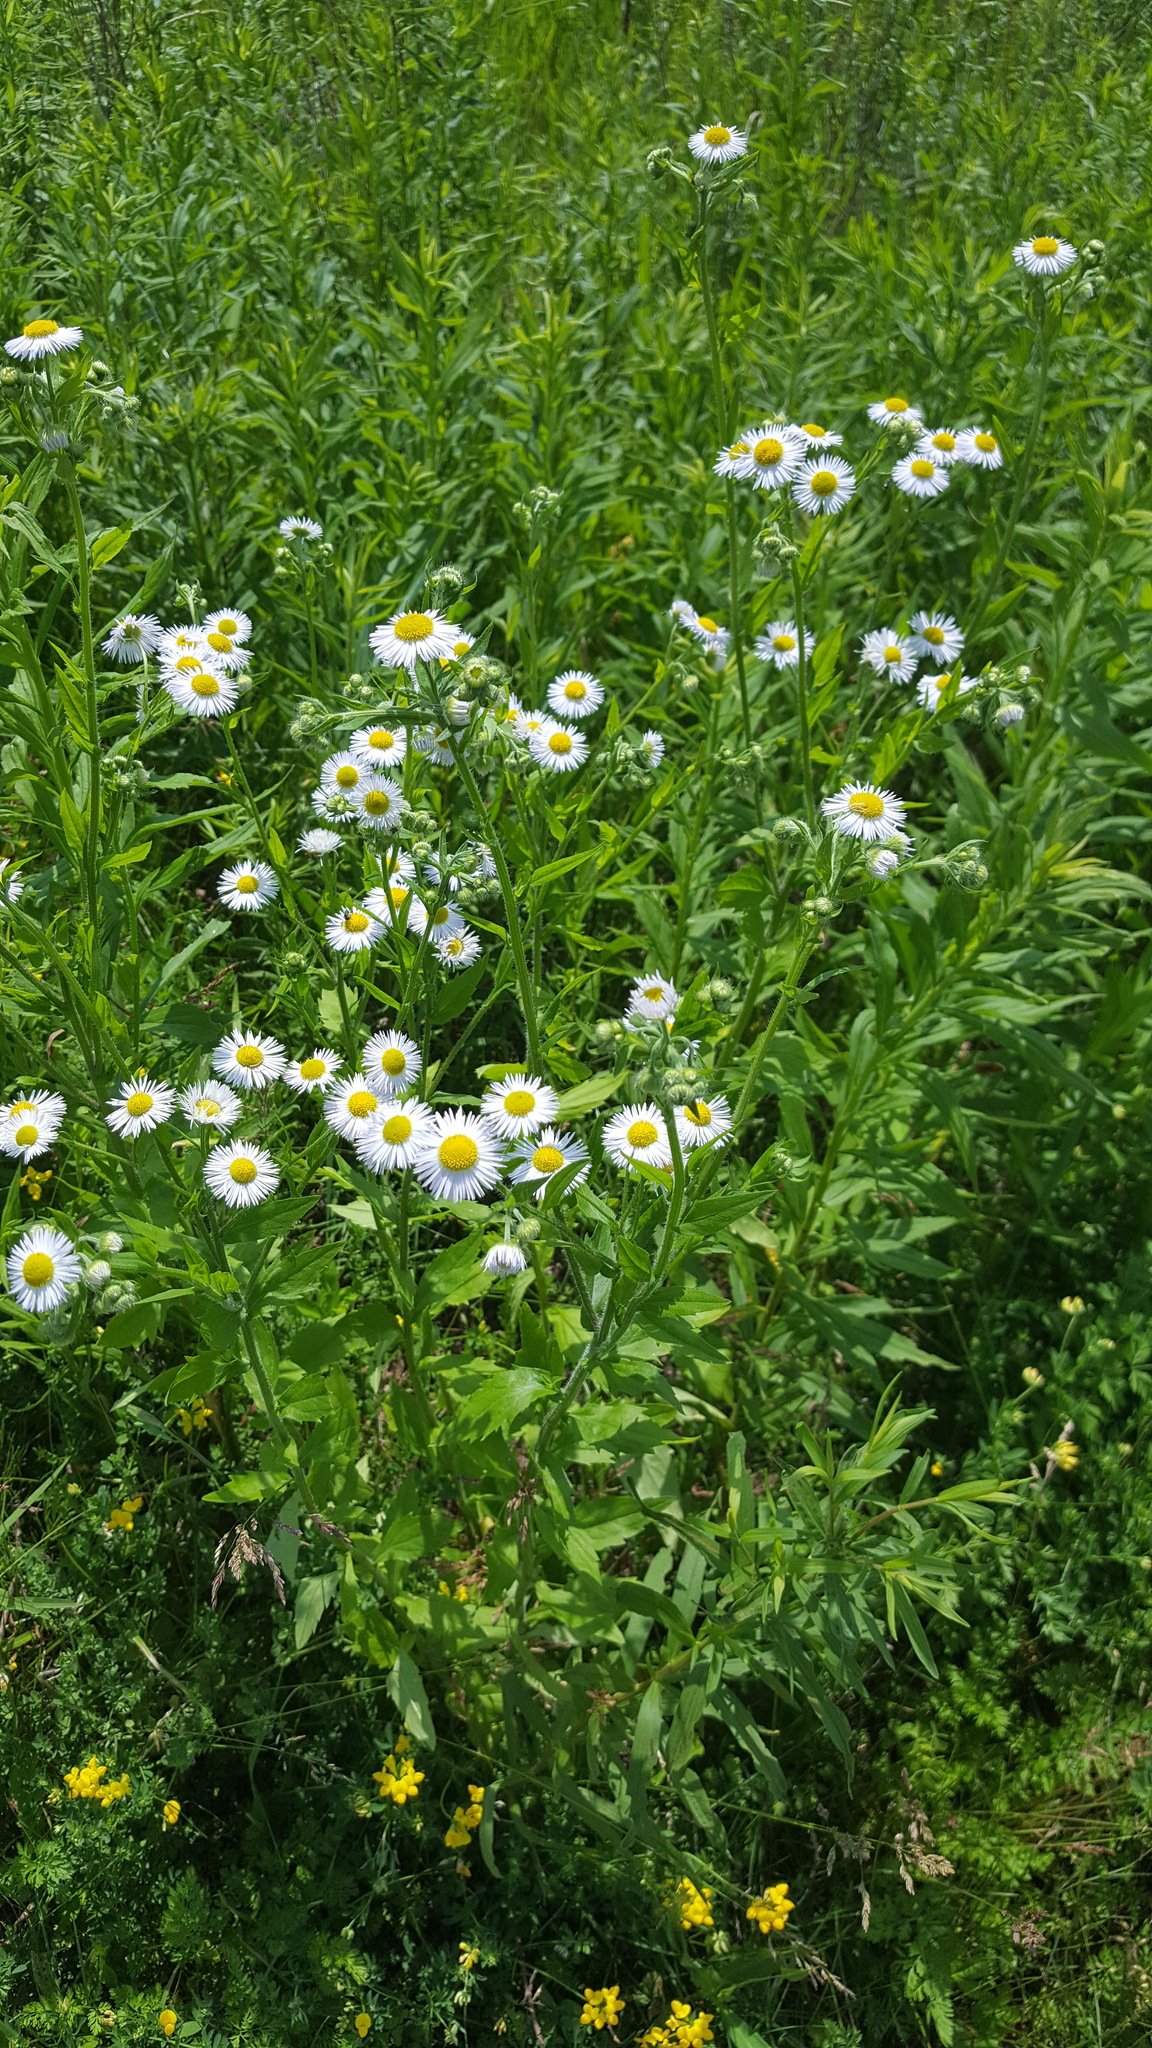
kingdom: Plantae
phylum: Tracheophyta
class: Magnoliopsida
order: Asterales
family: Asteraceae
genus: Erigeron
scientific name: Erigeron annuus
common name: Tall fleabane
